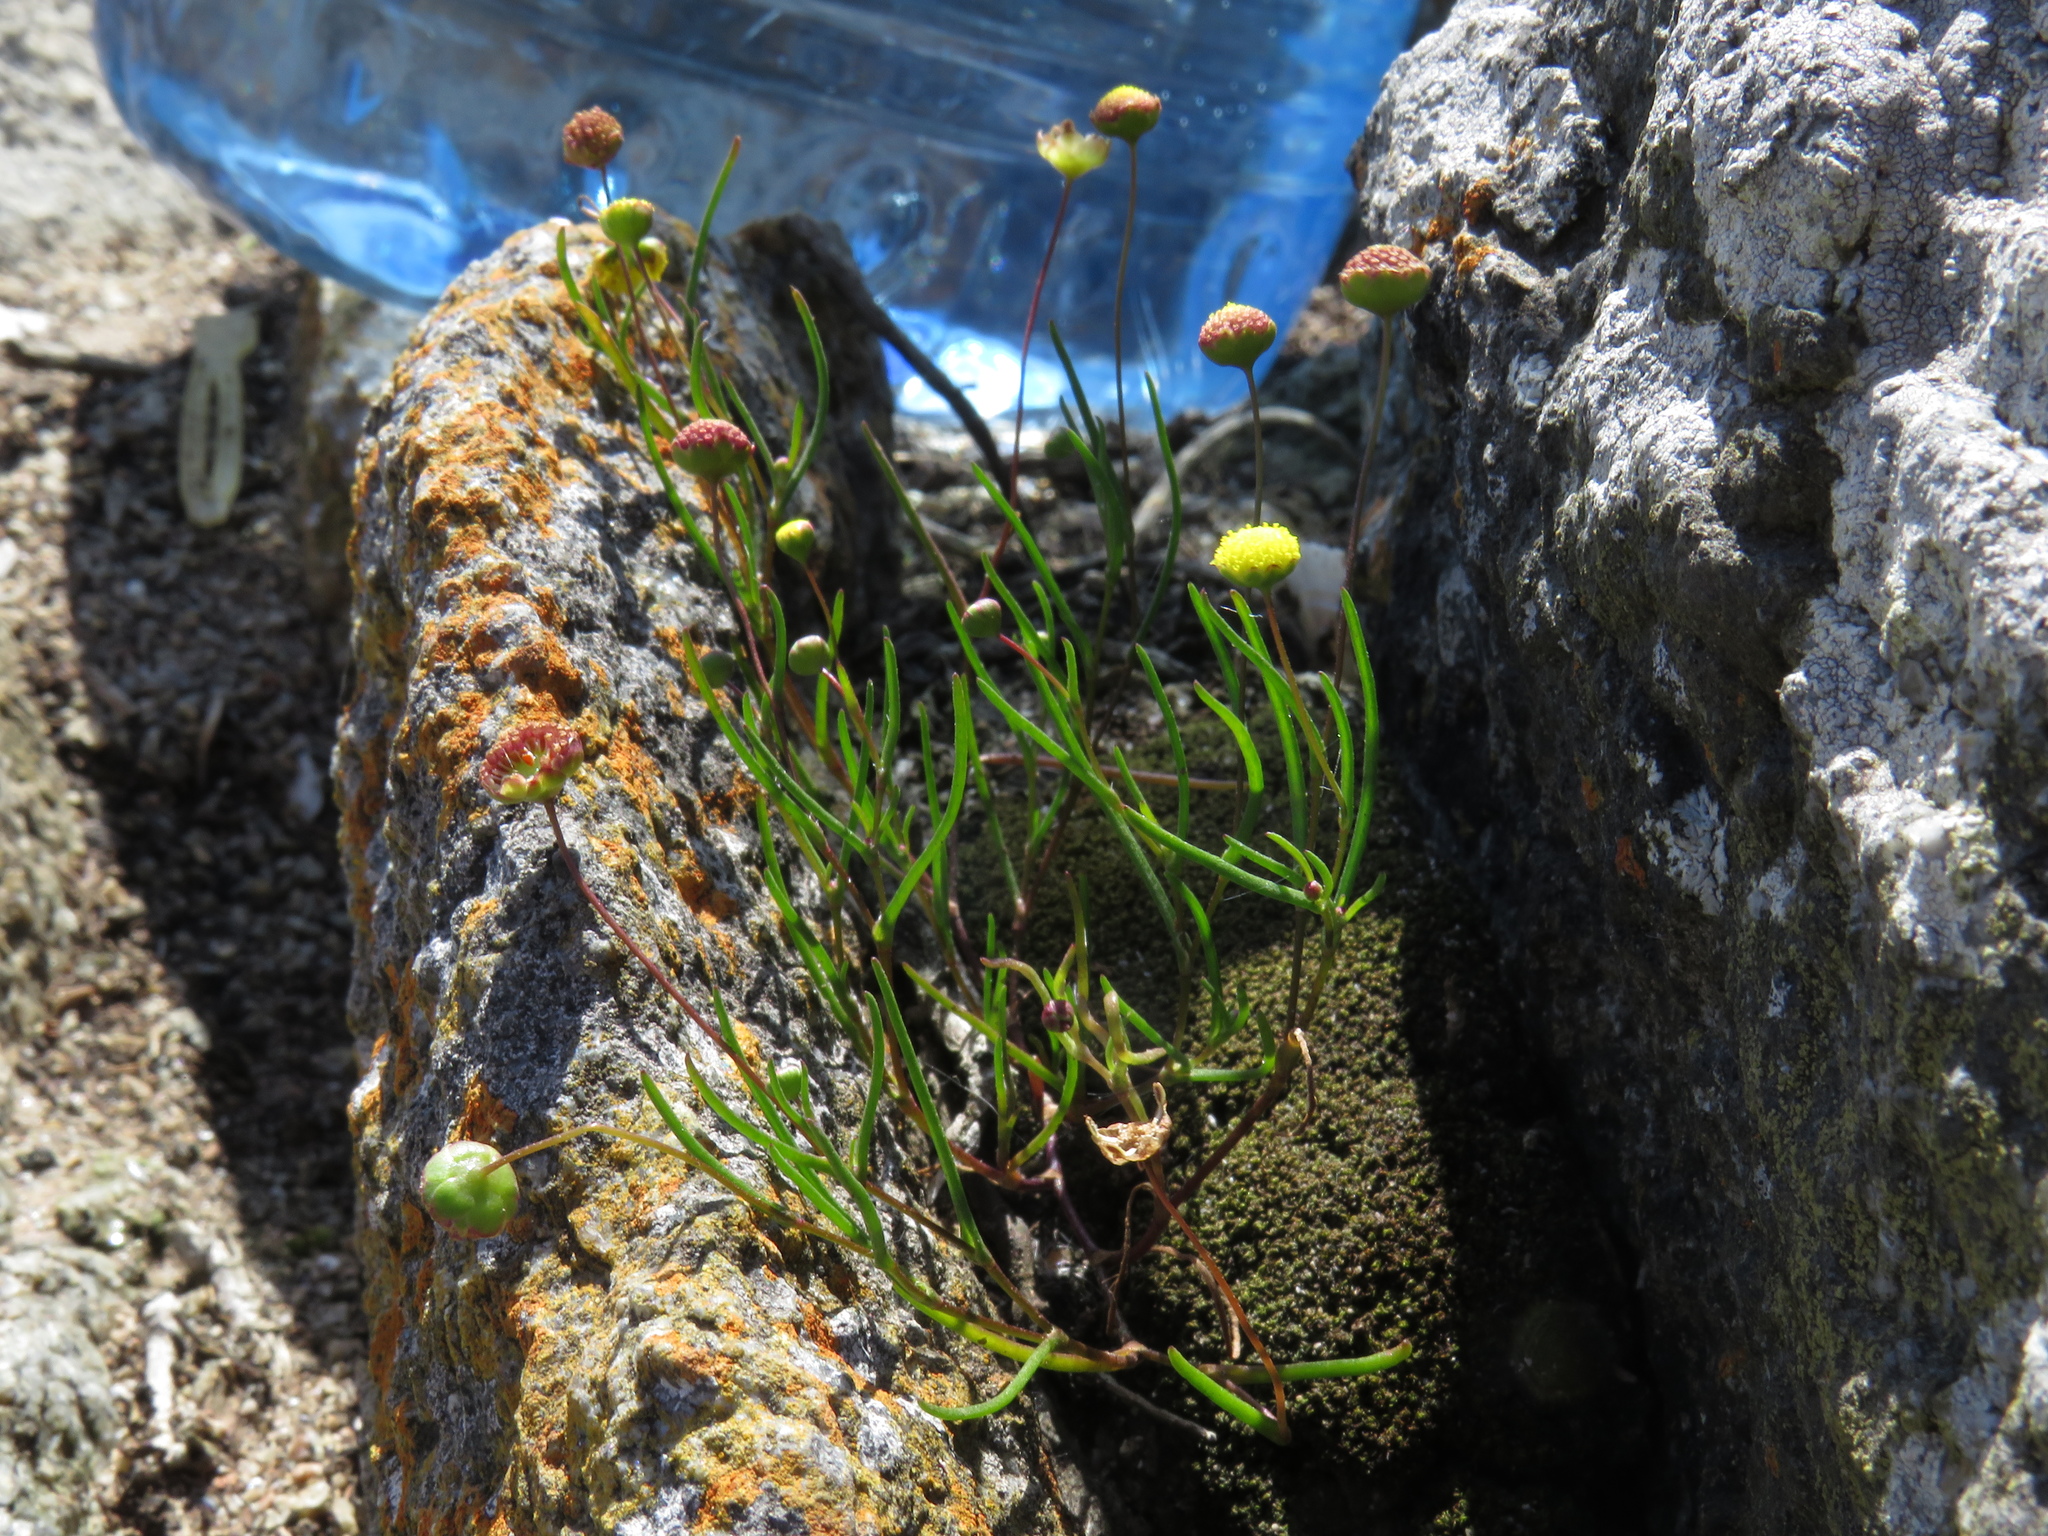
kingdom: Plantae
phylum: Tracheophyta
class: Magnoliopsida
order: Asterales
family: Asteraceae
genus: Cotula
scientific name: Cotula filifolia
